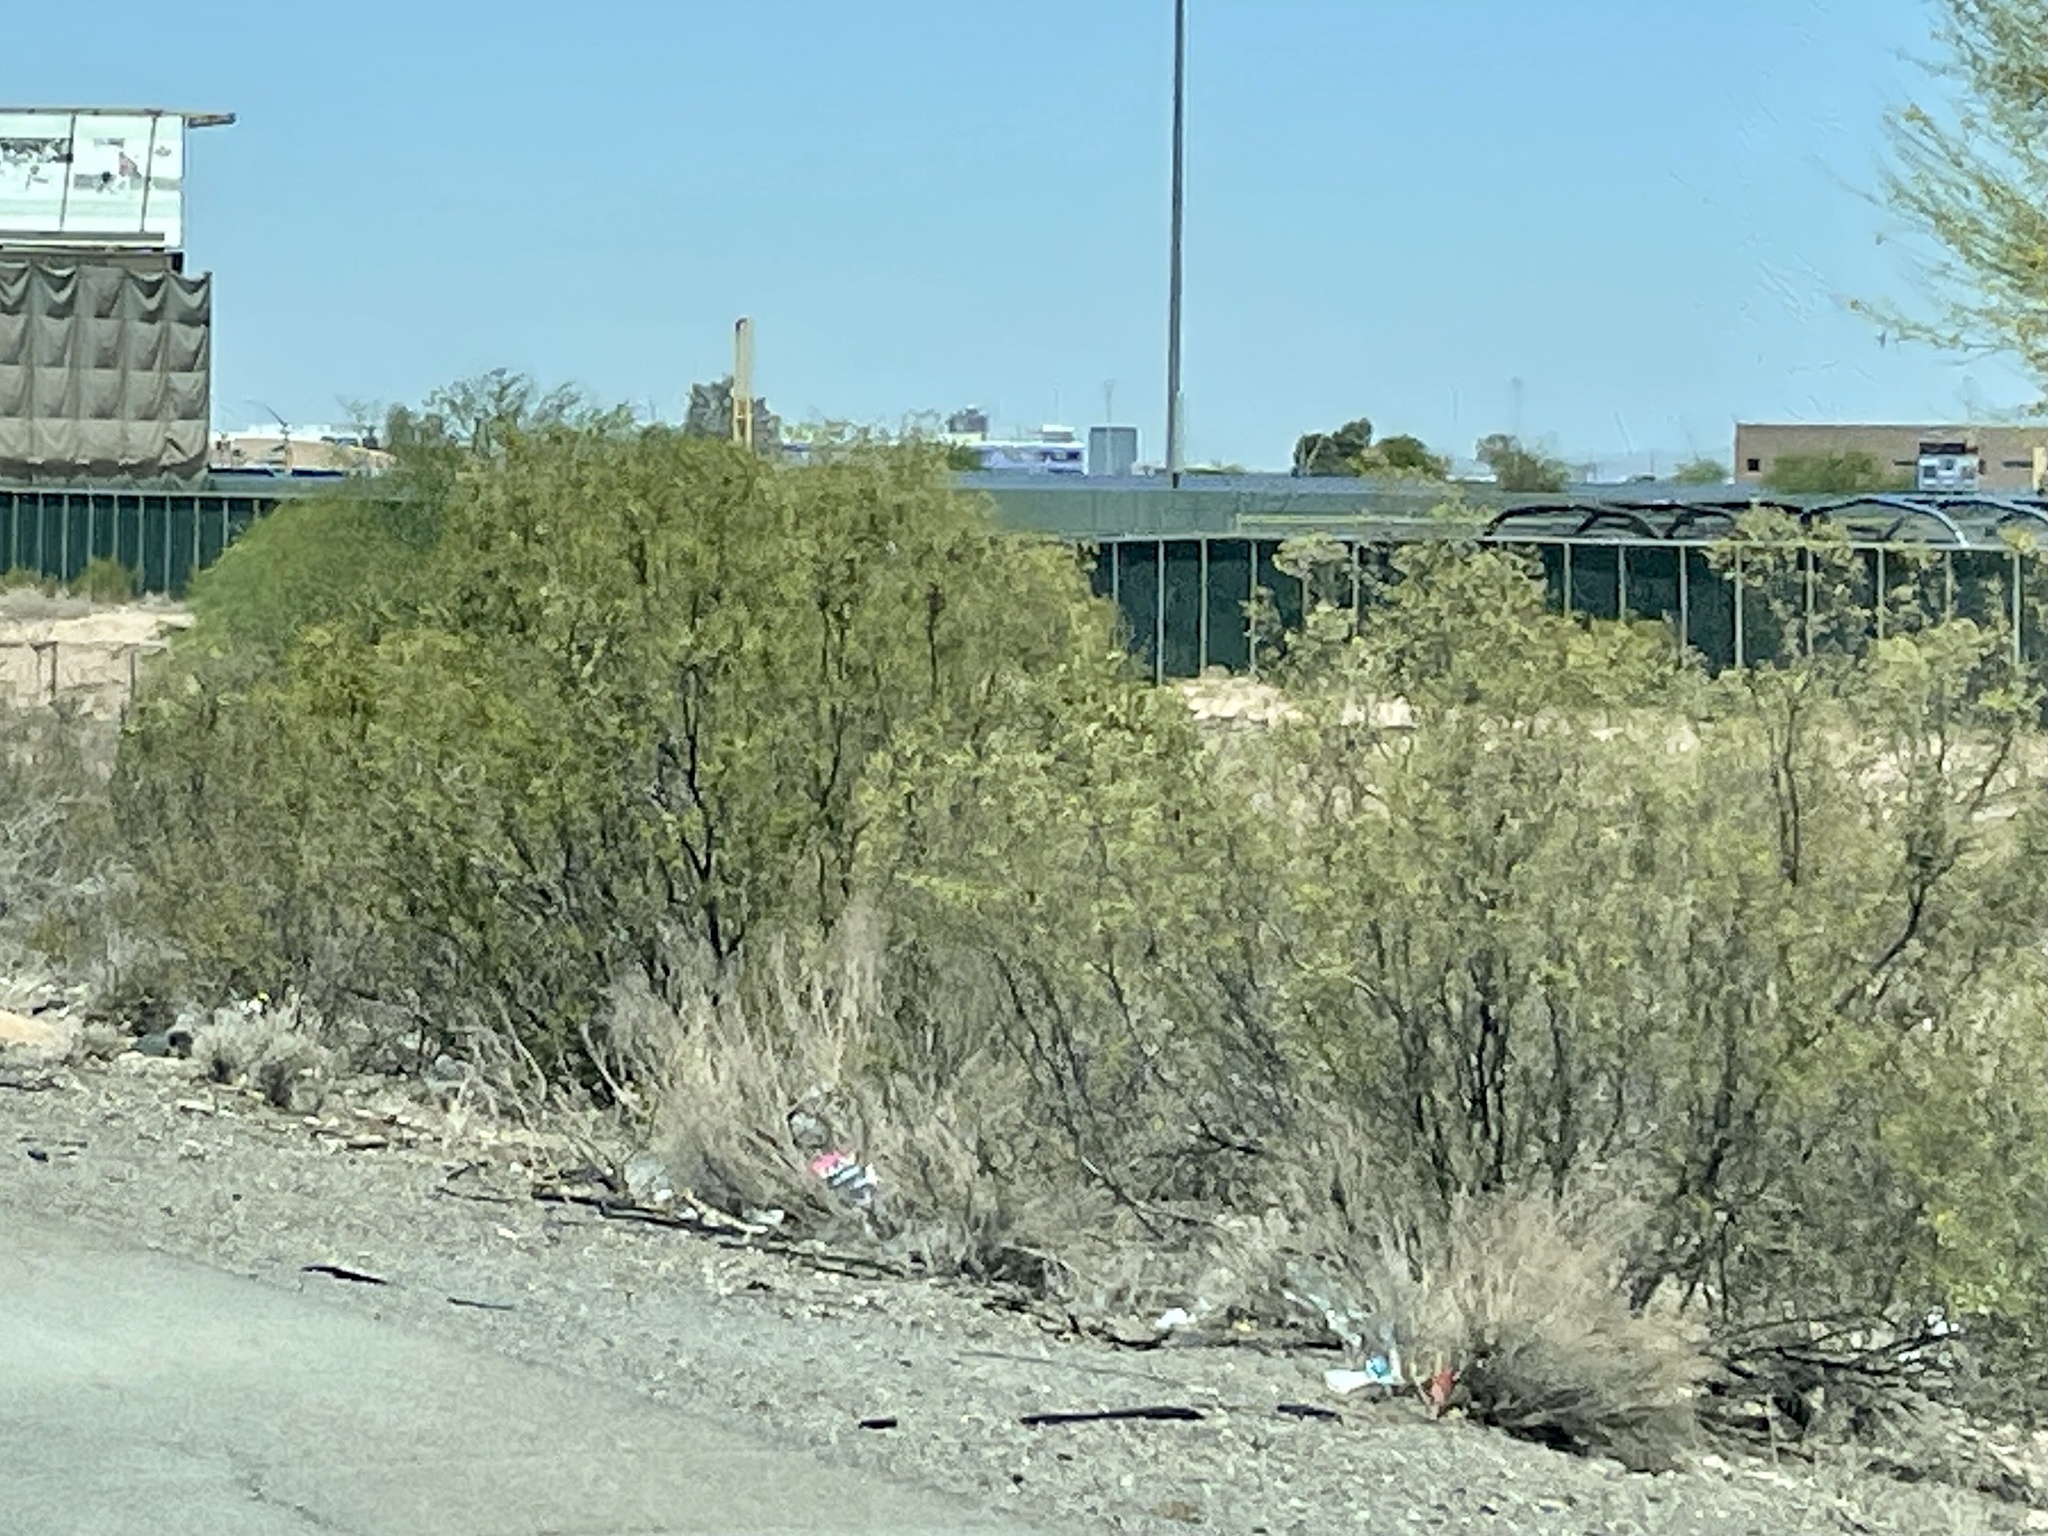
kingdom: Plantae
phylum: Tracheophyta
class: Magnoliopsida
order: Zygophyllales
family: Zygophyllaceae
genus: Larrea
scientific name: Larrea tridentata
